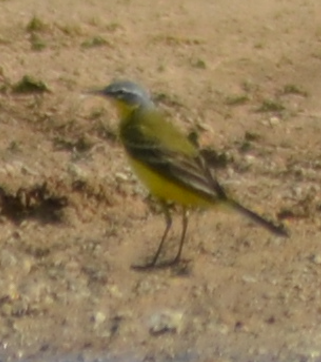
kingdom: Animalia
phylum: Chordata
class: Aves
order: Passeriformes
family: Motacillidae
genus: Motacilla
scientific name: Motacilla flava
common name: Western yellow wagtail
